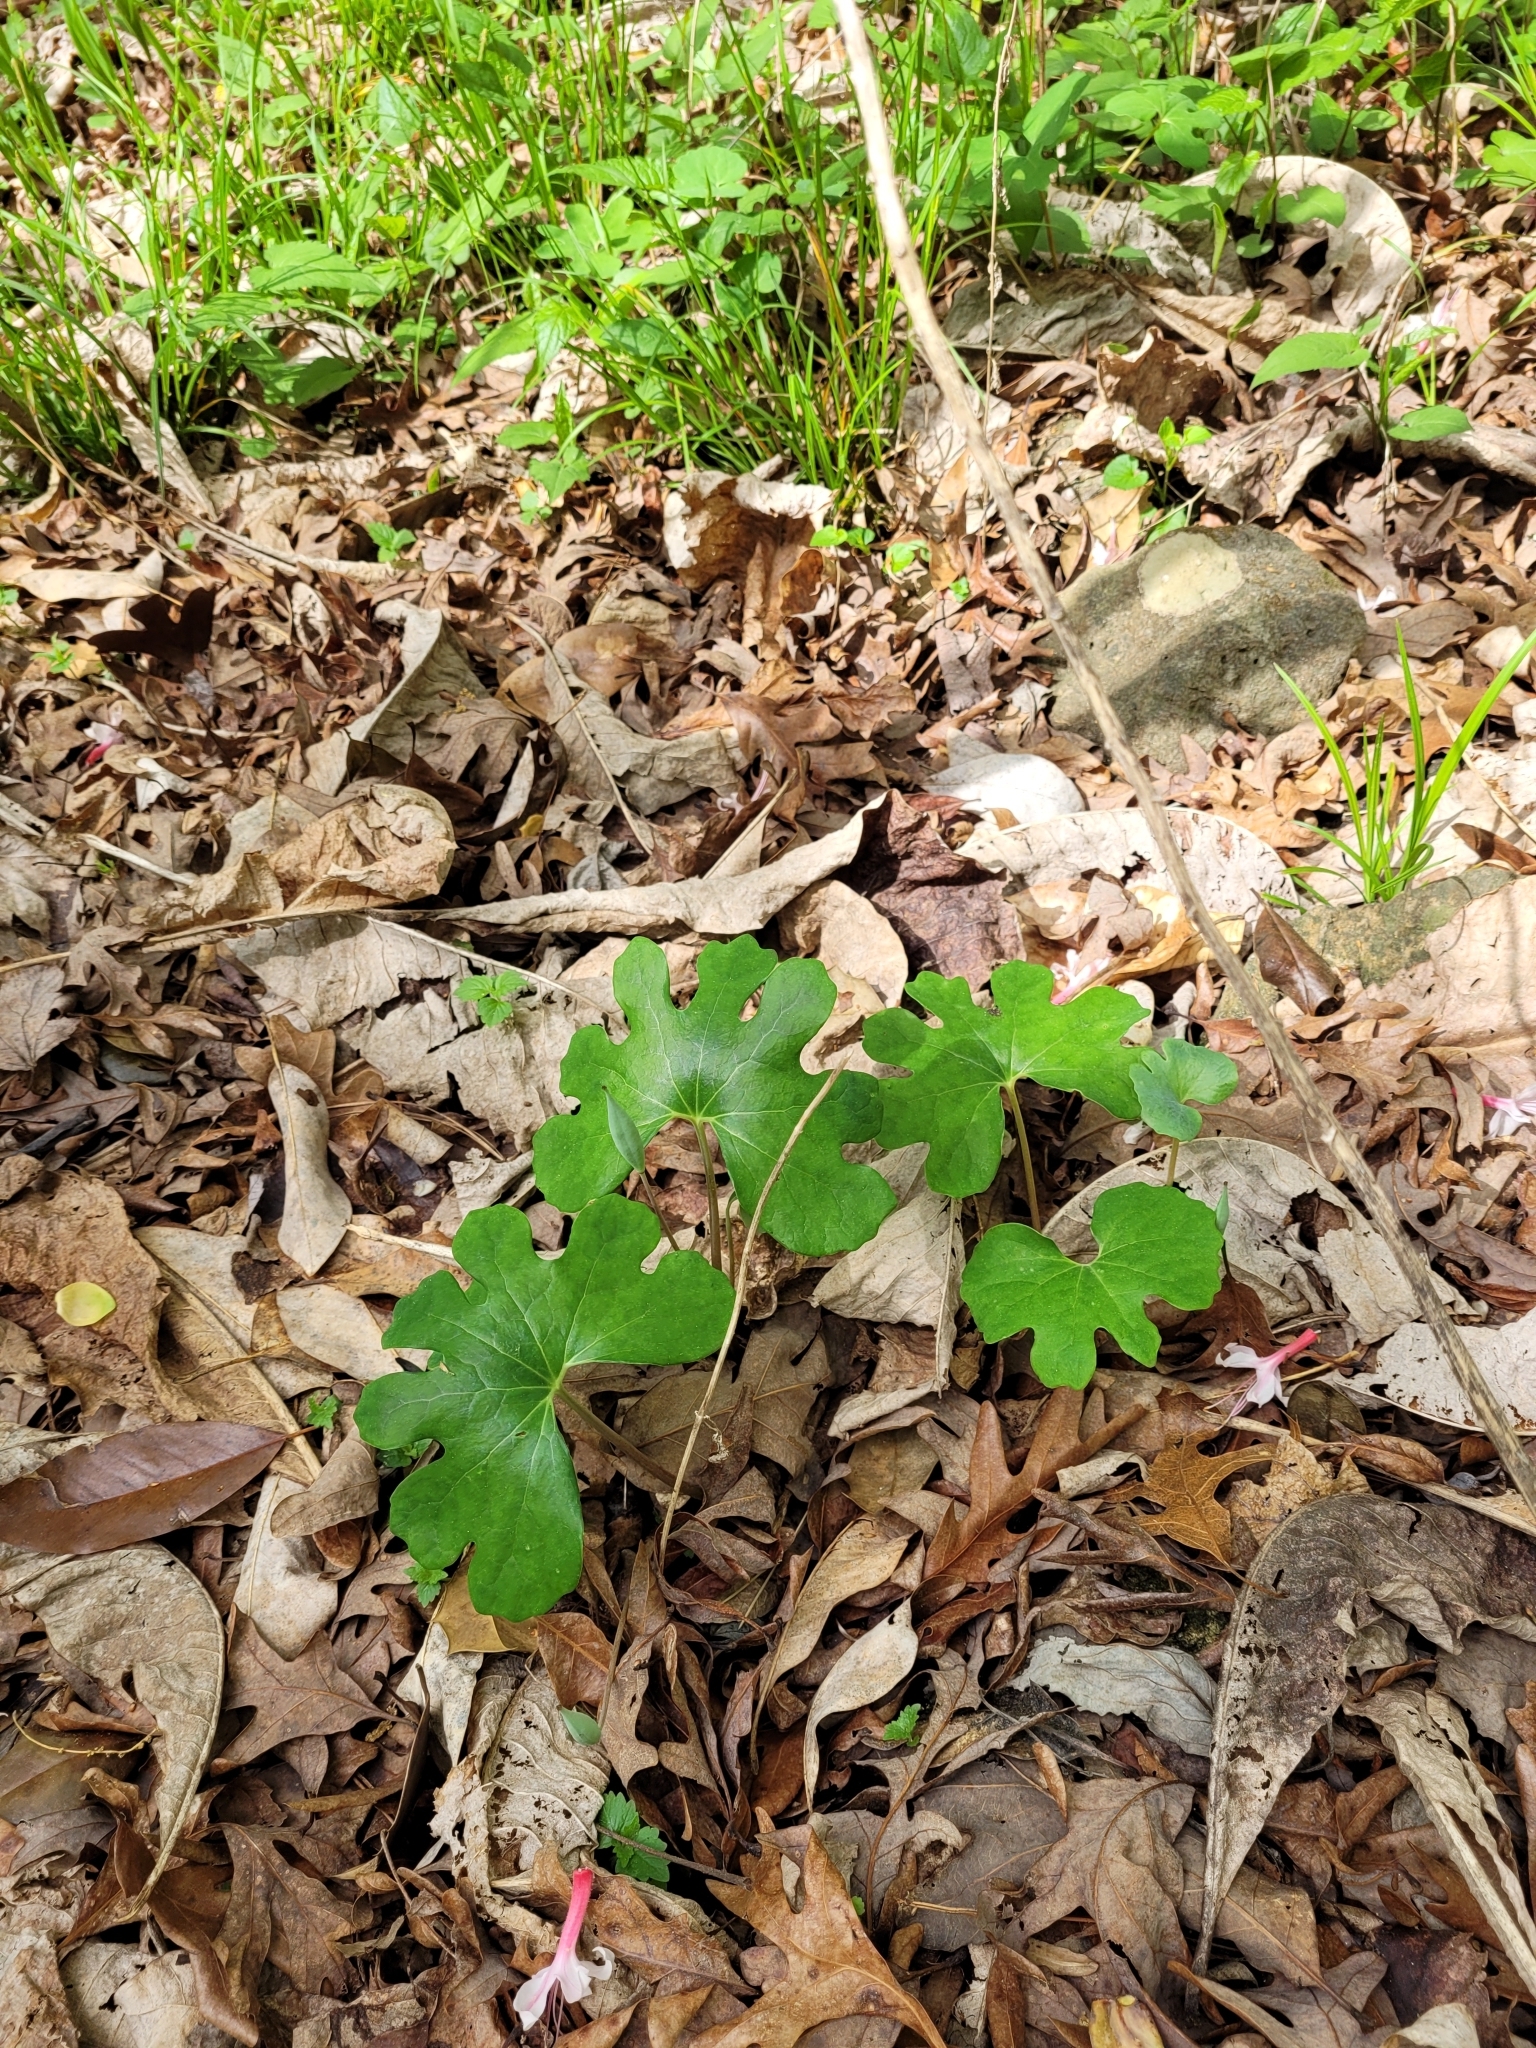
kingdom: Plantae
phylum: Tracheophyta
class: Magnoliopsida
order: Ranunculales
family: Papaveraceae
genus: Sanguinaria
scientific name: Sanguinaria canadensis
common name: Bloodroot
